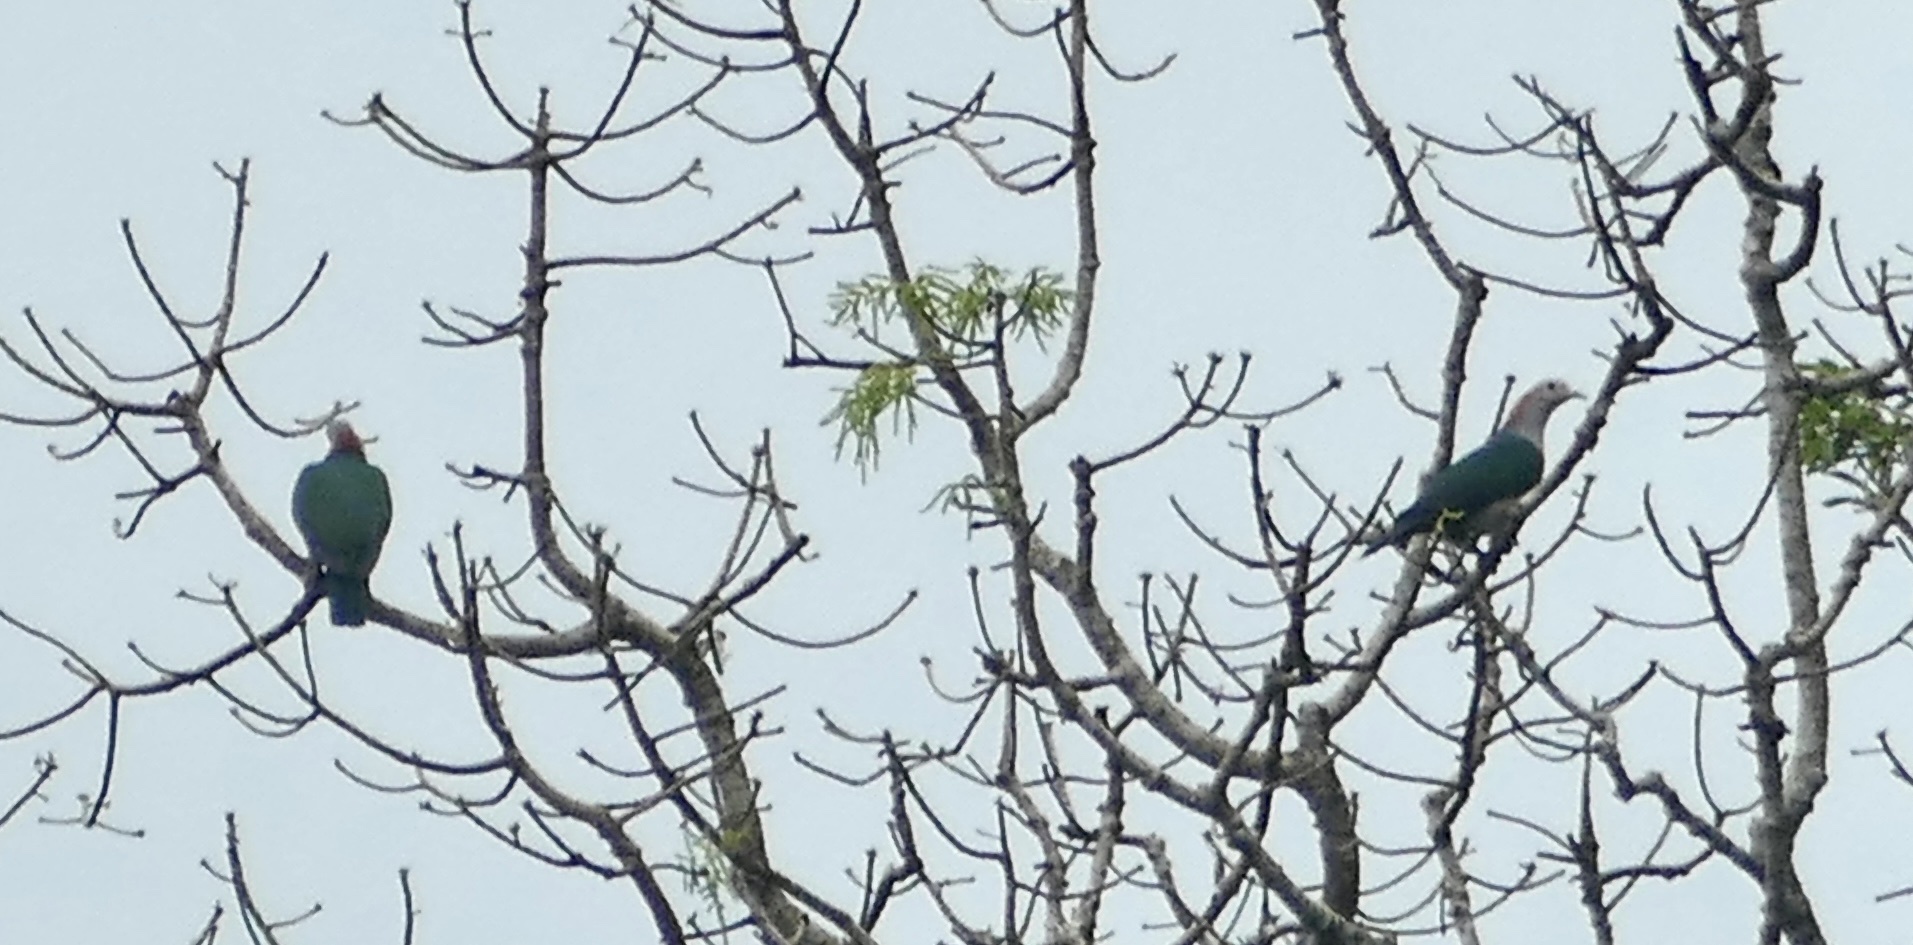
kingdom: Animalia
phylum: Chordata
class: Aves
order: Columbiformes
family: Columbidae
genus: Ducula
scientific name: Ducula aenea
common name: Green imperial pigeon
